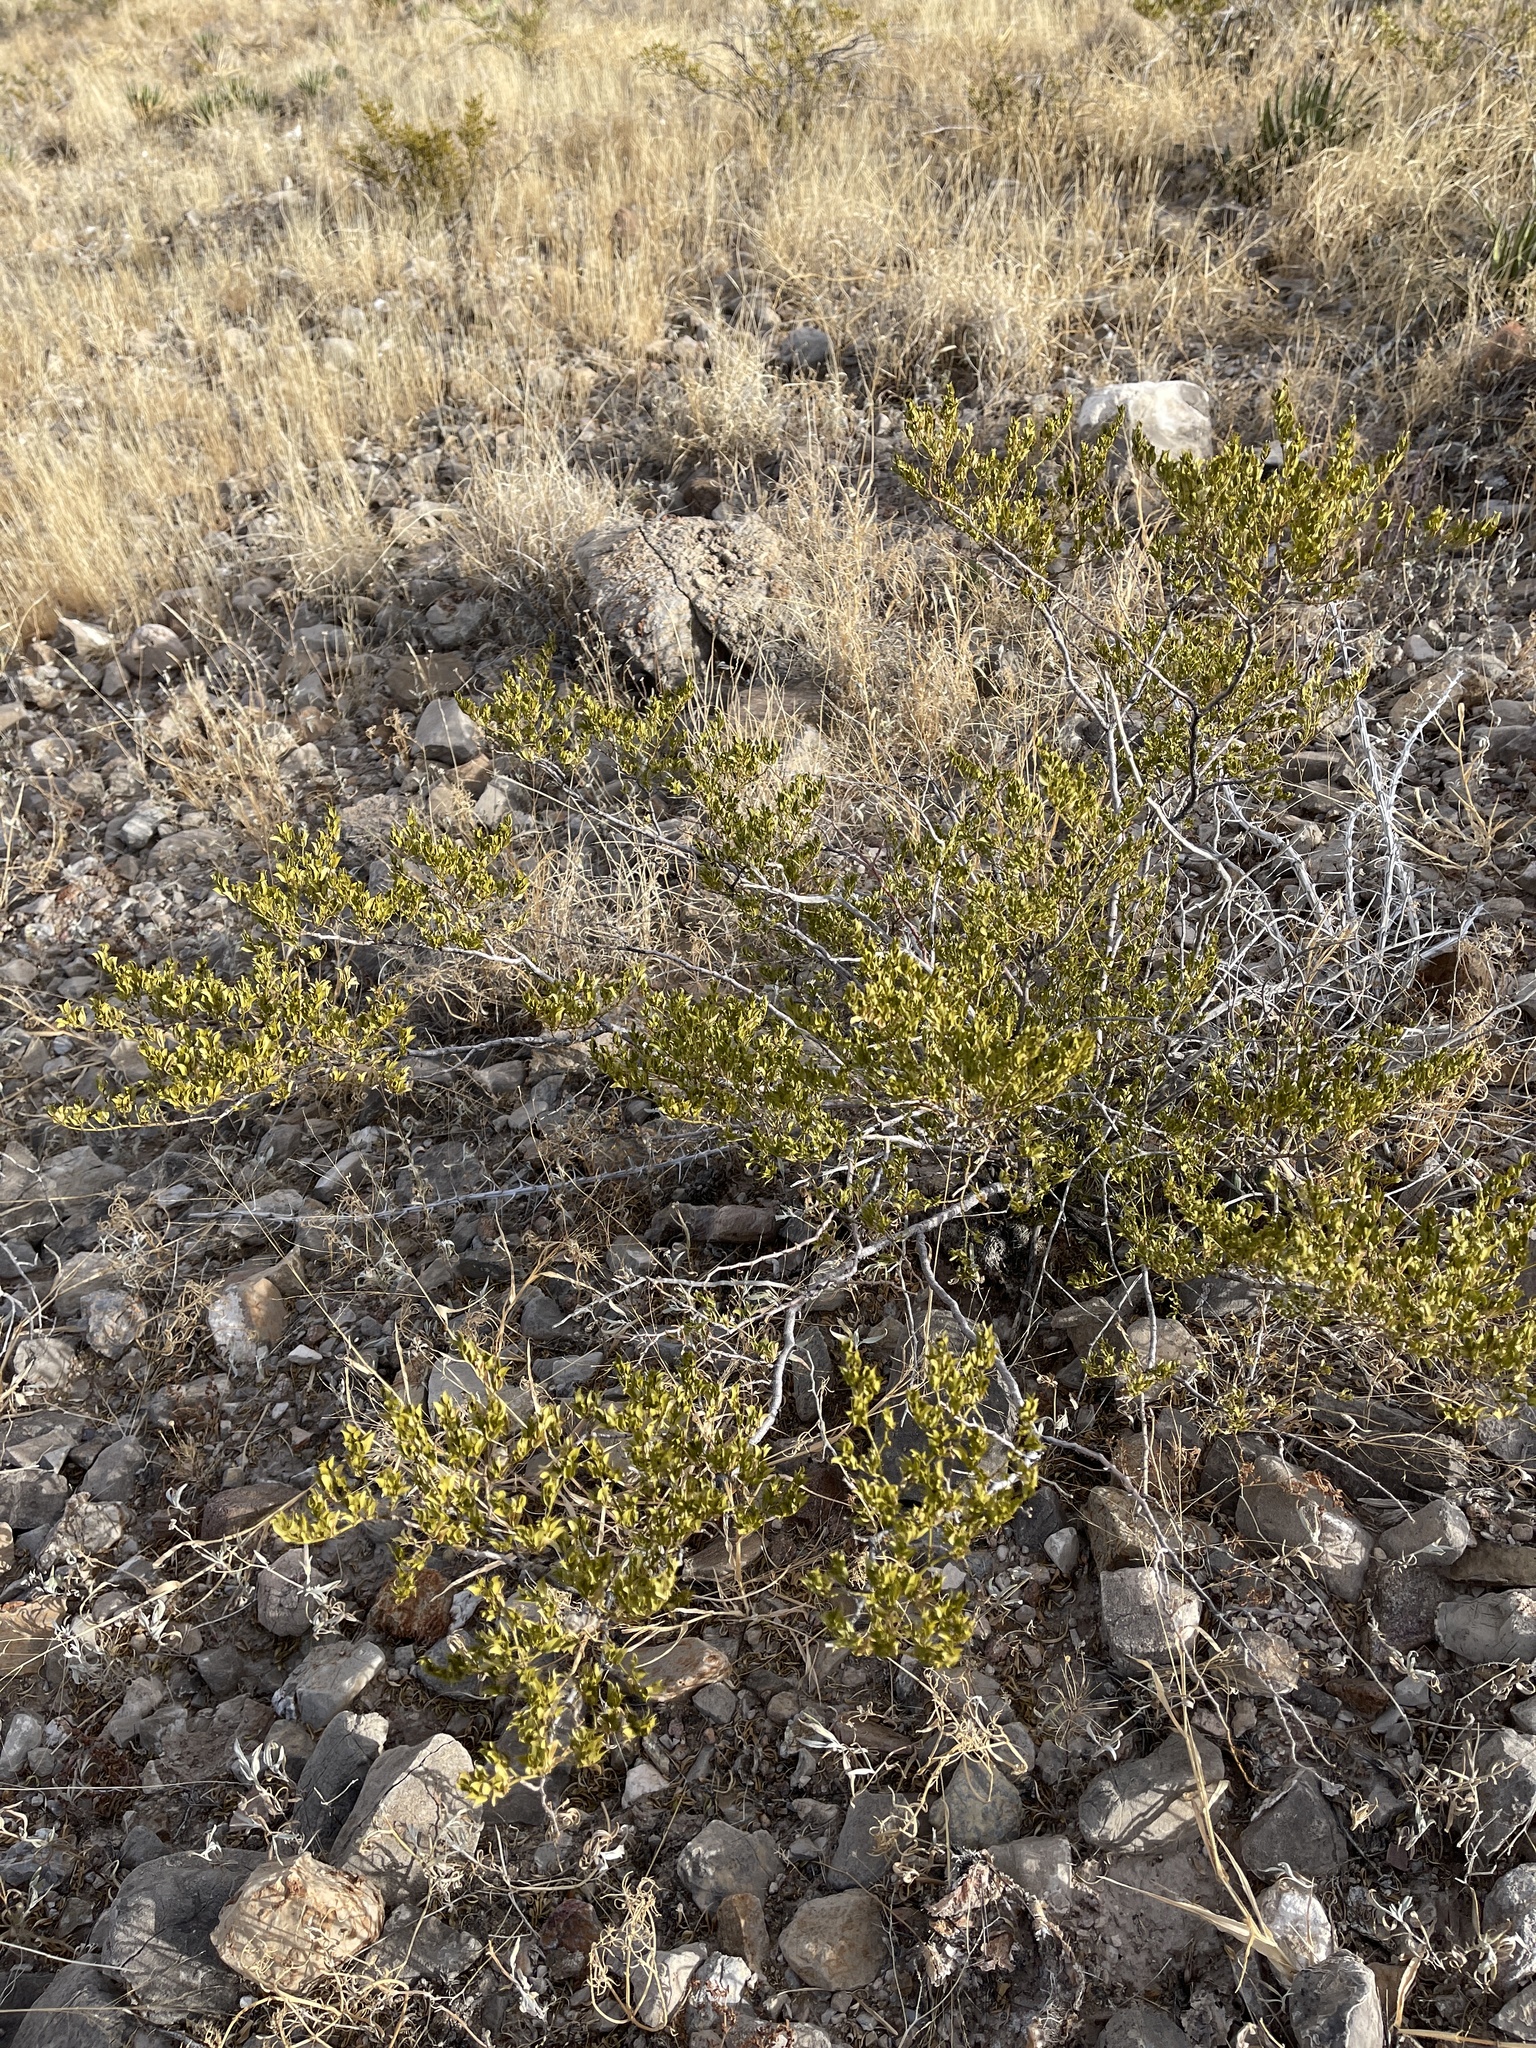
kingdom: Plantae
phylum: Tracheophyta
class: Magnoliopsida
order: Zygophyllales
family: Zygophyllaceae
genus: Larrea
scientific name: Larrea tridentata
